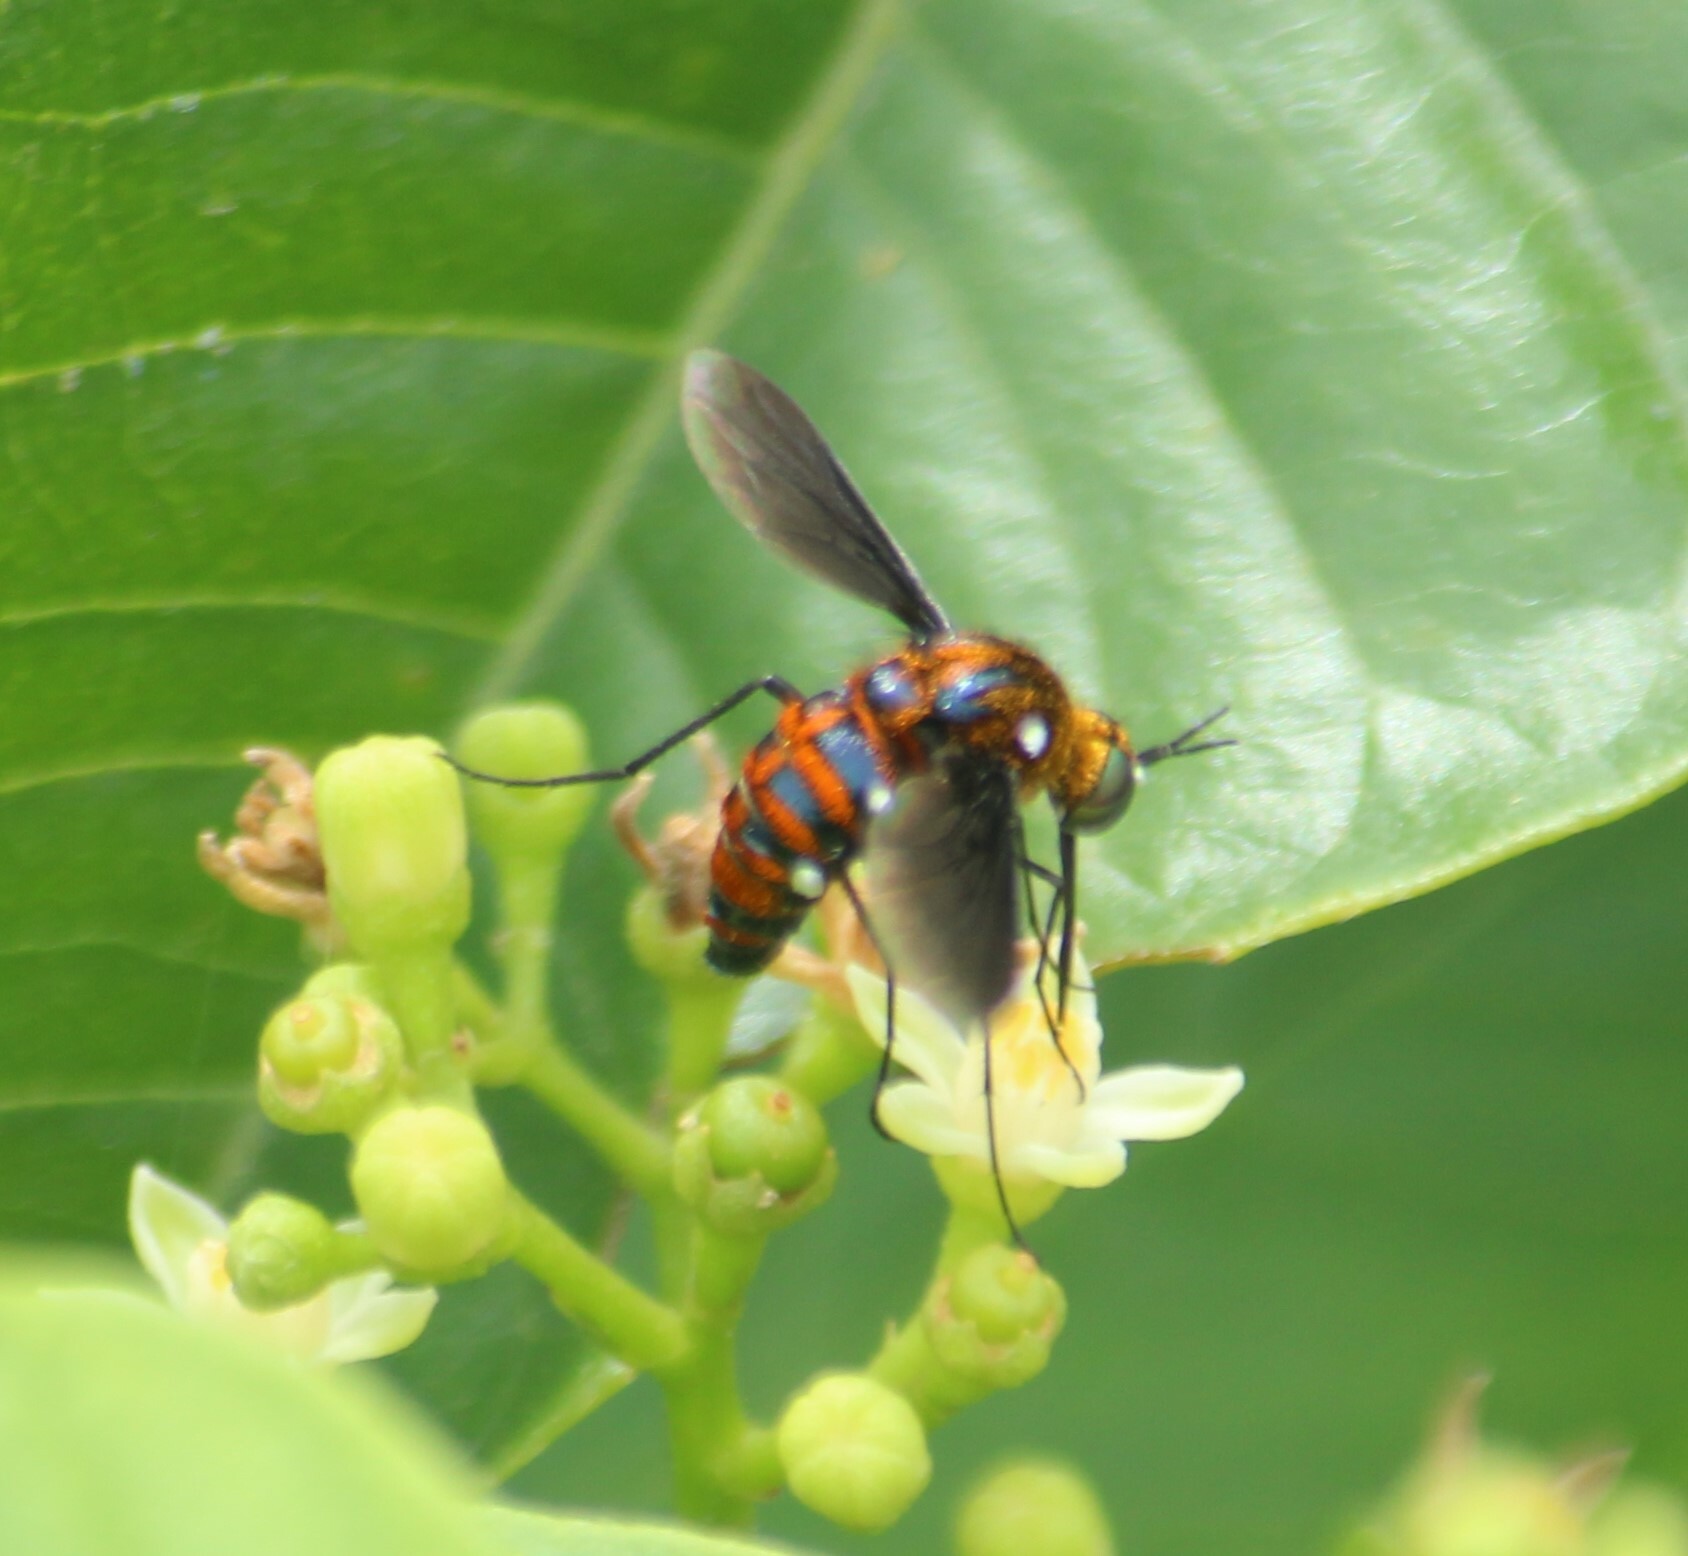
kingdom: Animalia
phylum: Arthropoda
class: Insecta
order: Diptera
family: Bombyliidae
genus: Euchariomyia
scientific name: Euchariomyia dives
